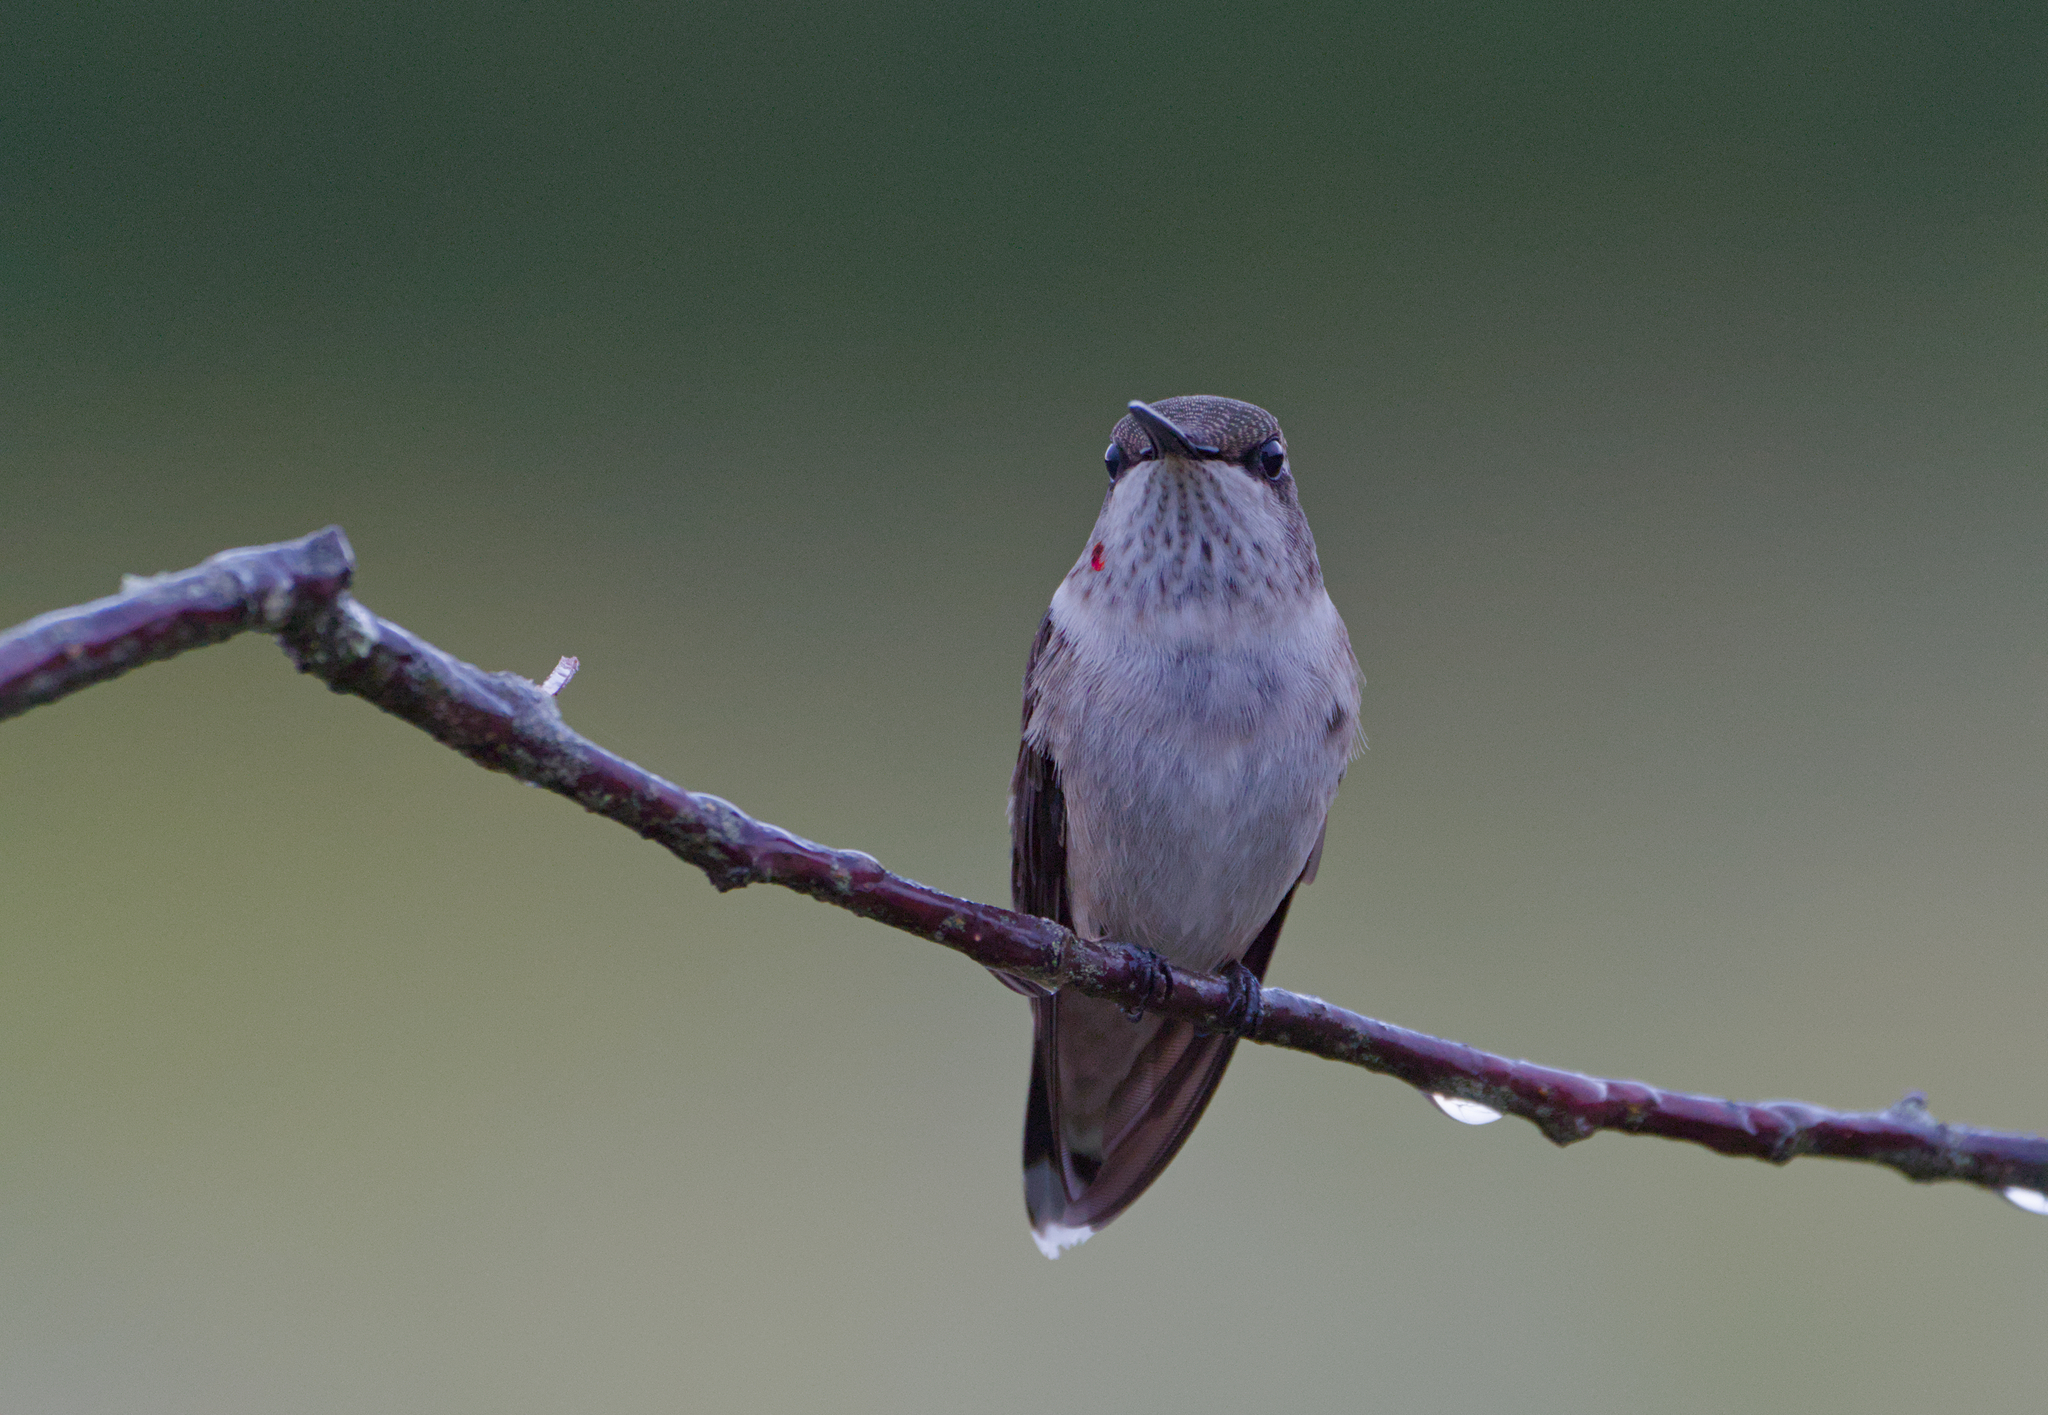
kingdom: Animalia
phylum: Chordata
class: Aves
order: Apodiformes
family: Trochilidae
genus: Archilochus
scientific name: Archilochus colubris
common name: Ruby-throated hummingbird
